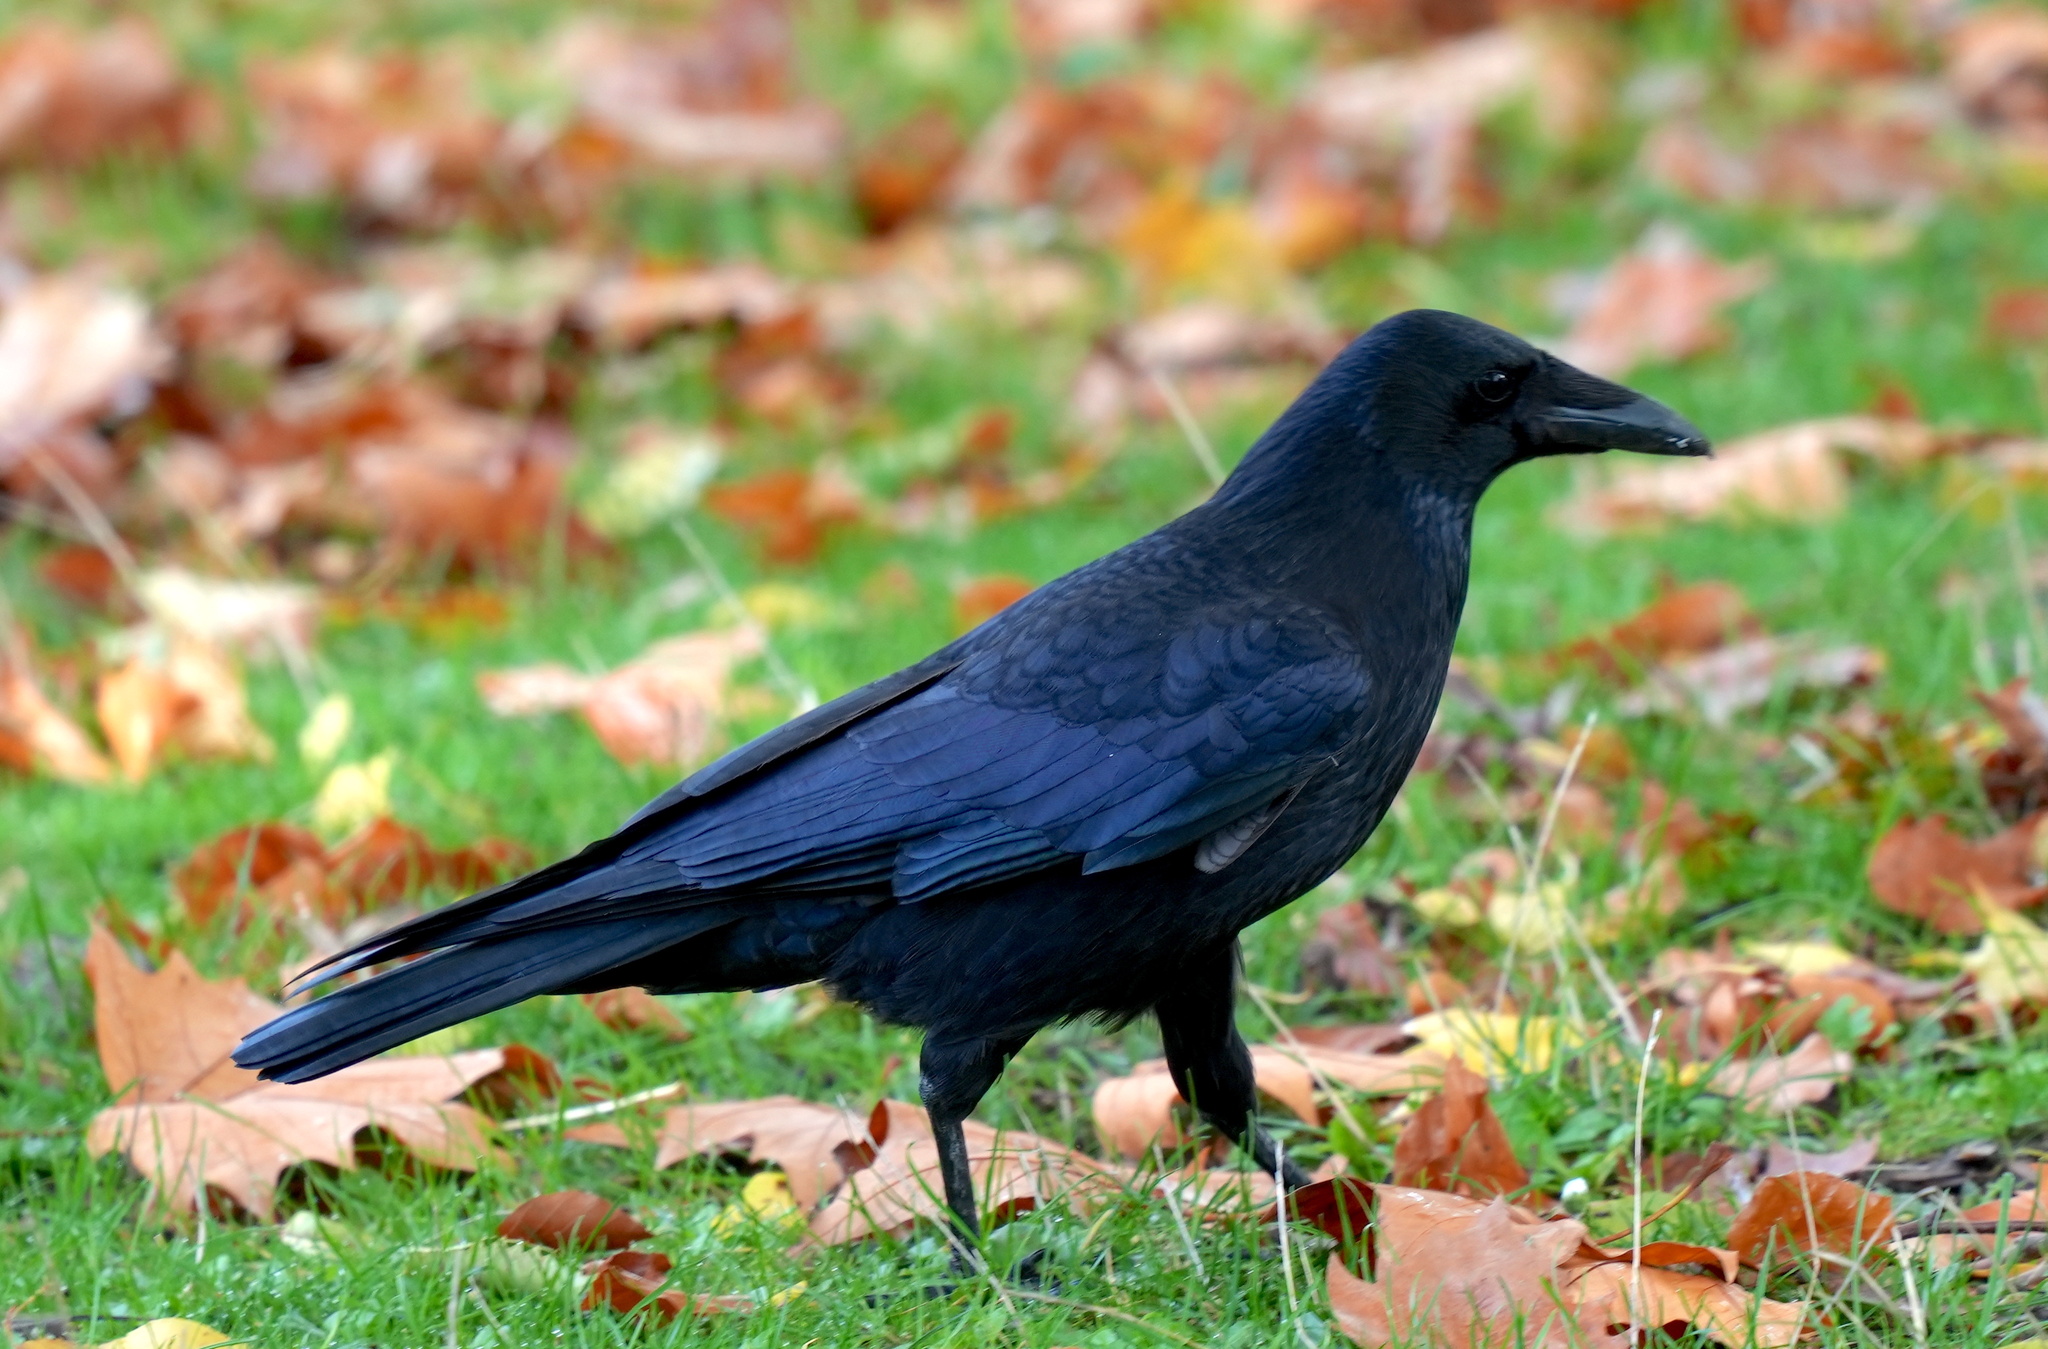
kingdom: Animalia
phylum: Chordata
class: Aves
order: Passeriformes
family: Corvidae
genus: Corvus
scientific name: Corvus corone
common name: Carrion crow
